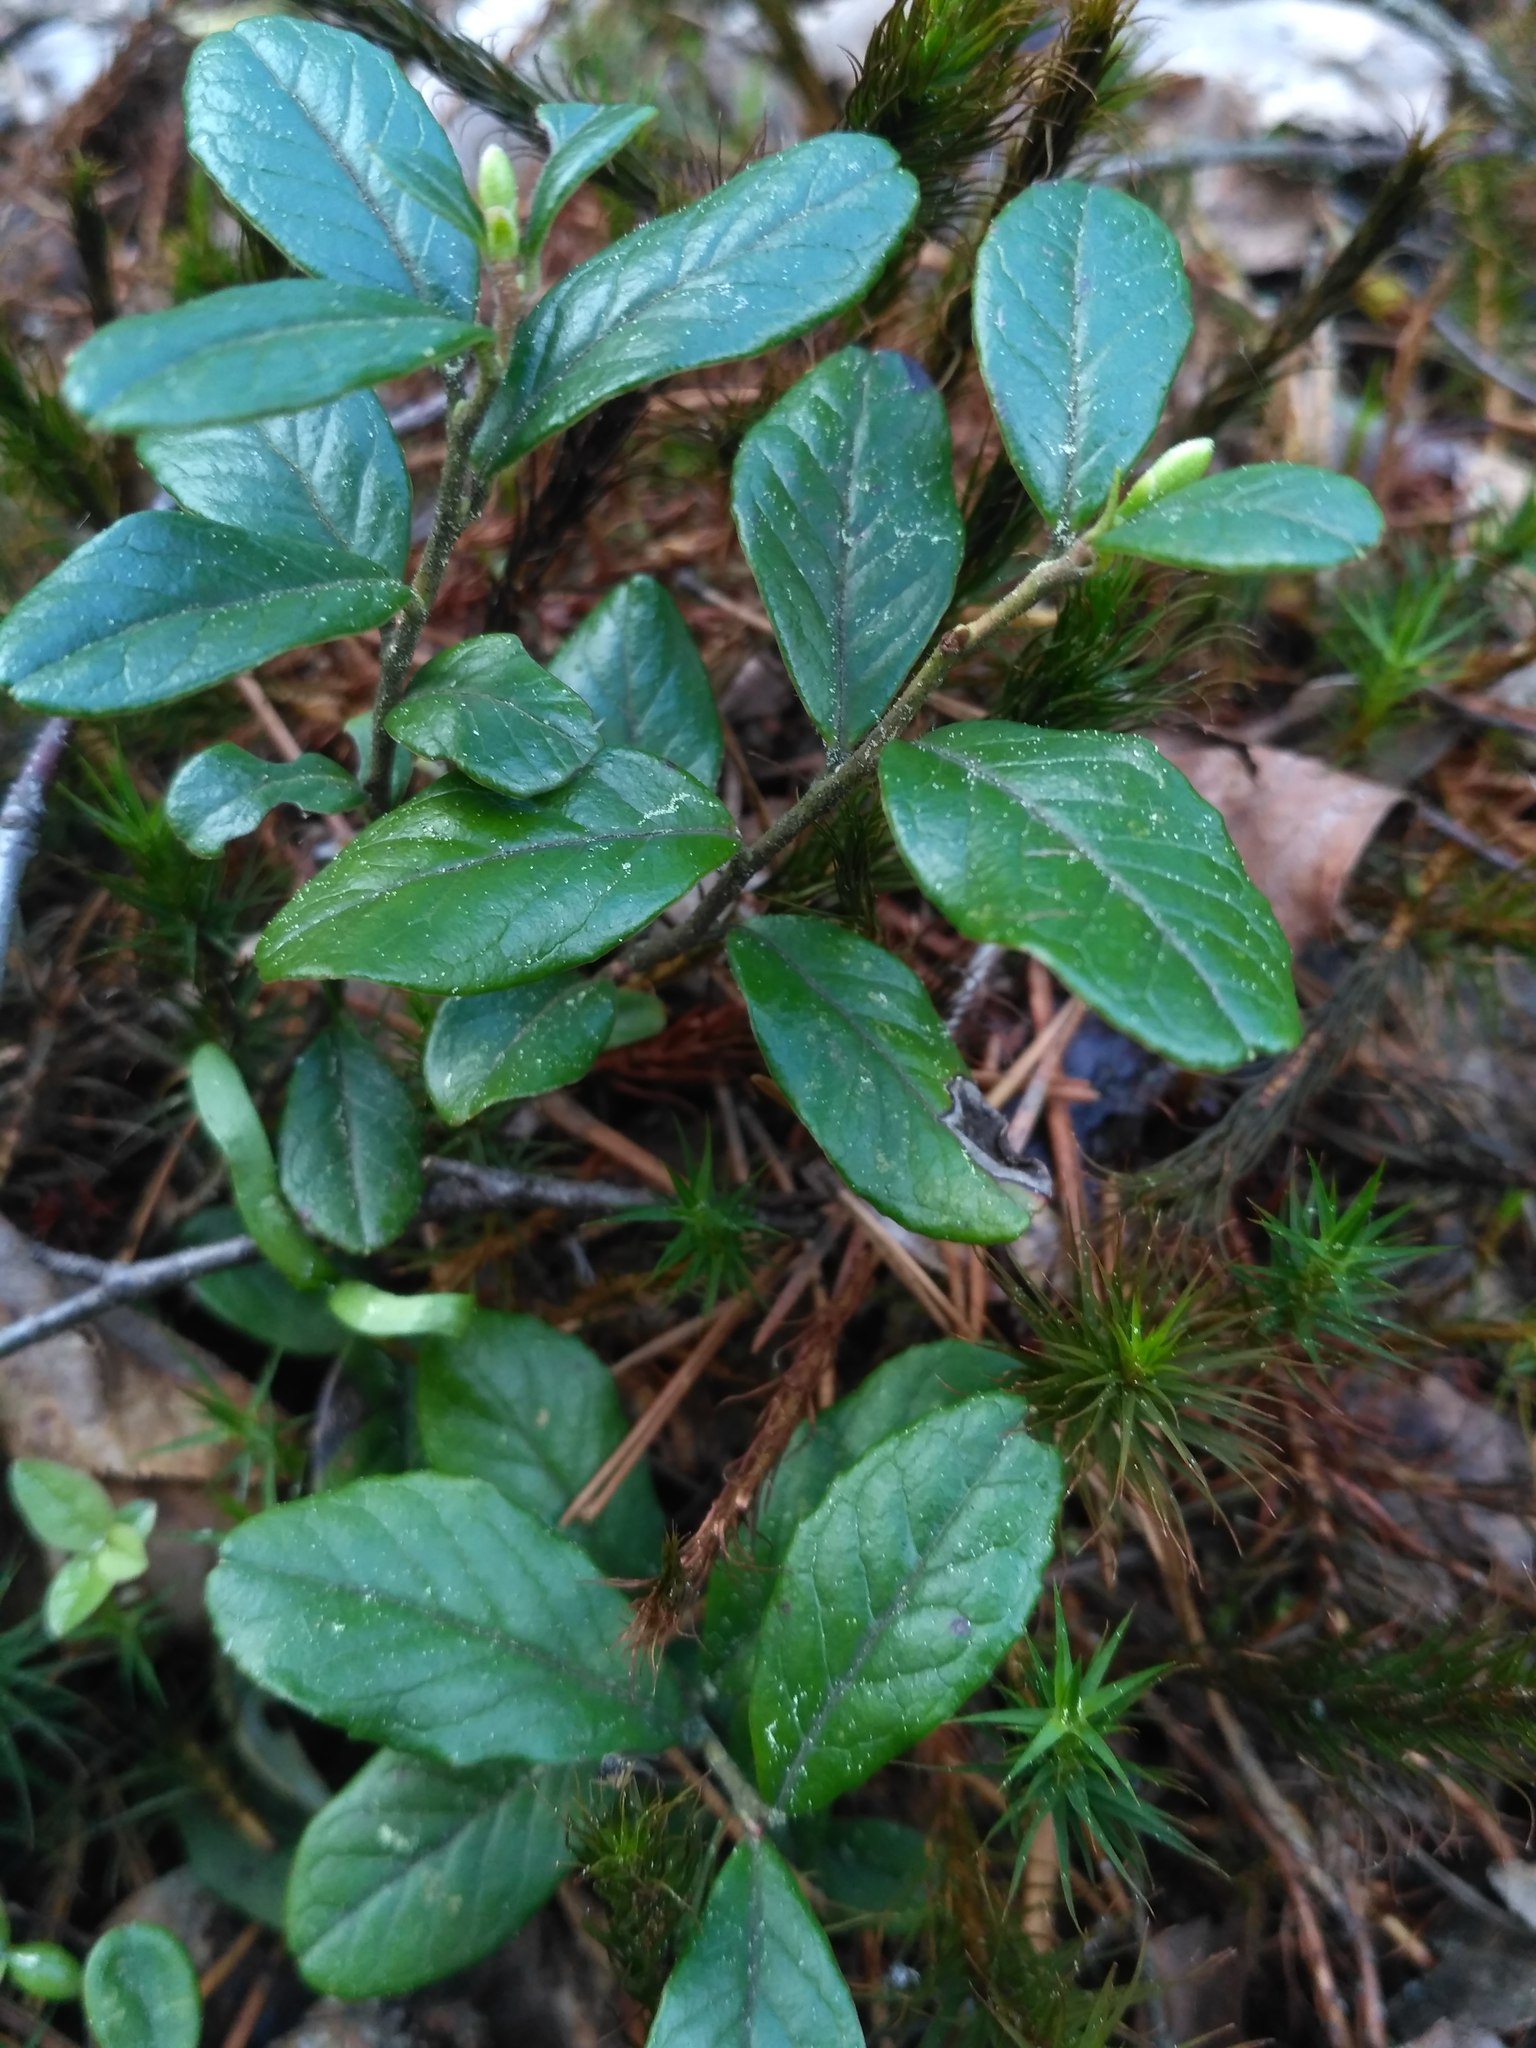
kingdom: Plantae
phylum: Tracheophyta
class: Magnoliopsida
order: Ericales
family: Ericaceae
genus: Vaccinium
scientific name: Vaccinium vitis-idaea
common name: Cowberry
